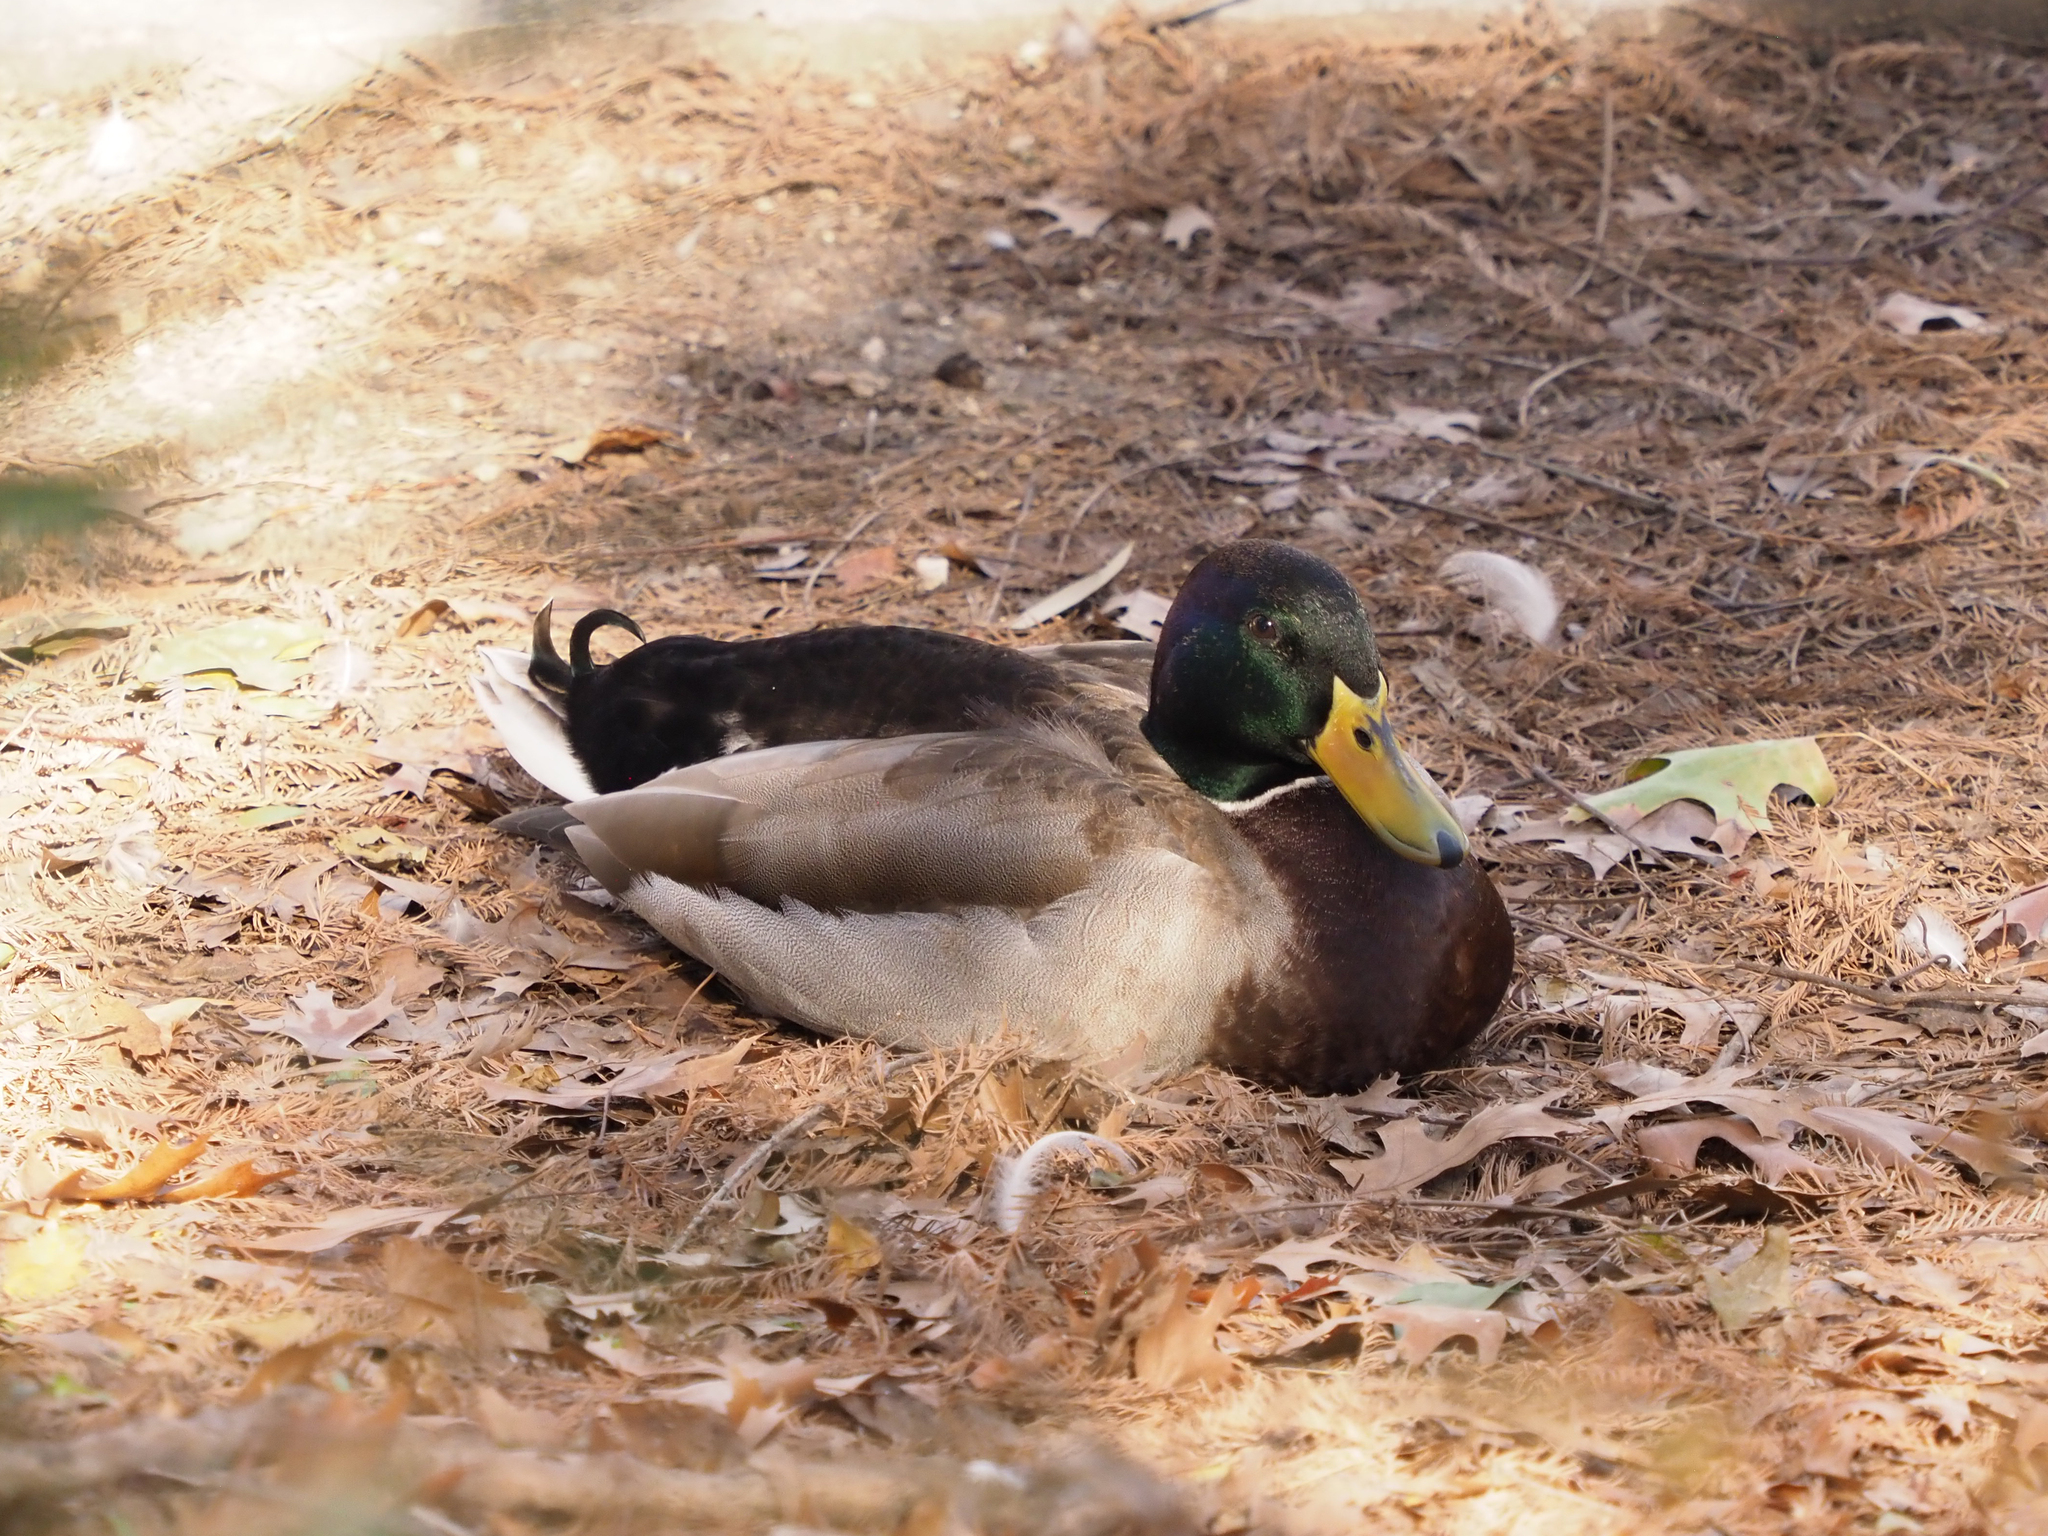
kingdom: Animalia
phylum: Chordata
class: Aves
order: Anseriformes
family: Anatidae
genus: Anas
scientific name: Anas platyrhynchos
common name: Mallard
